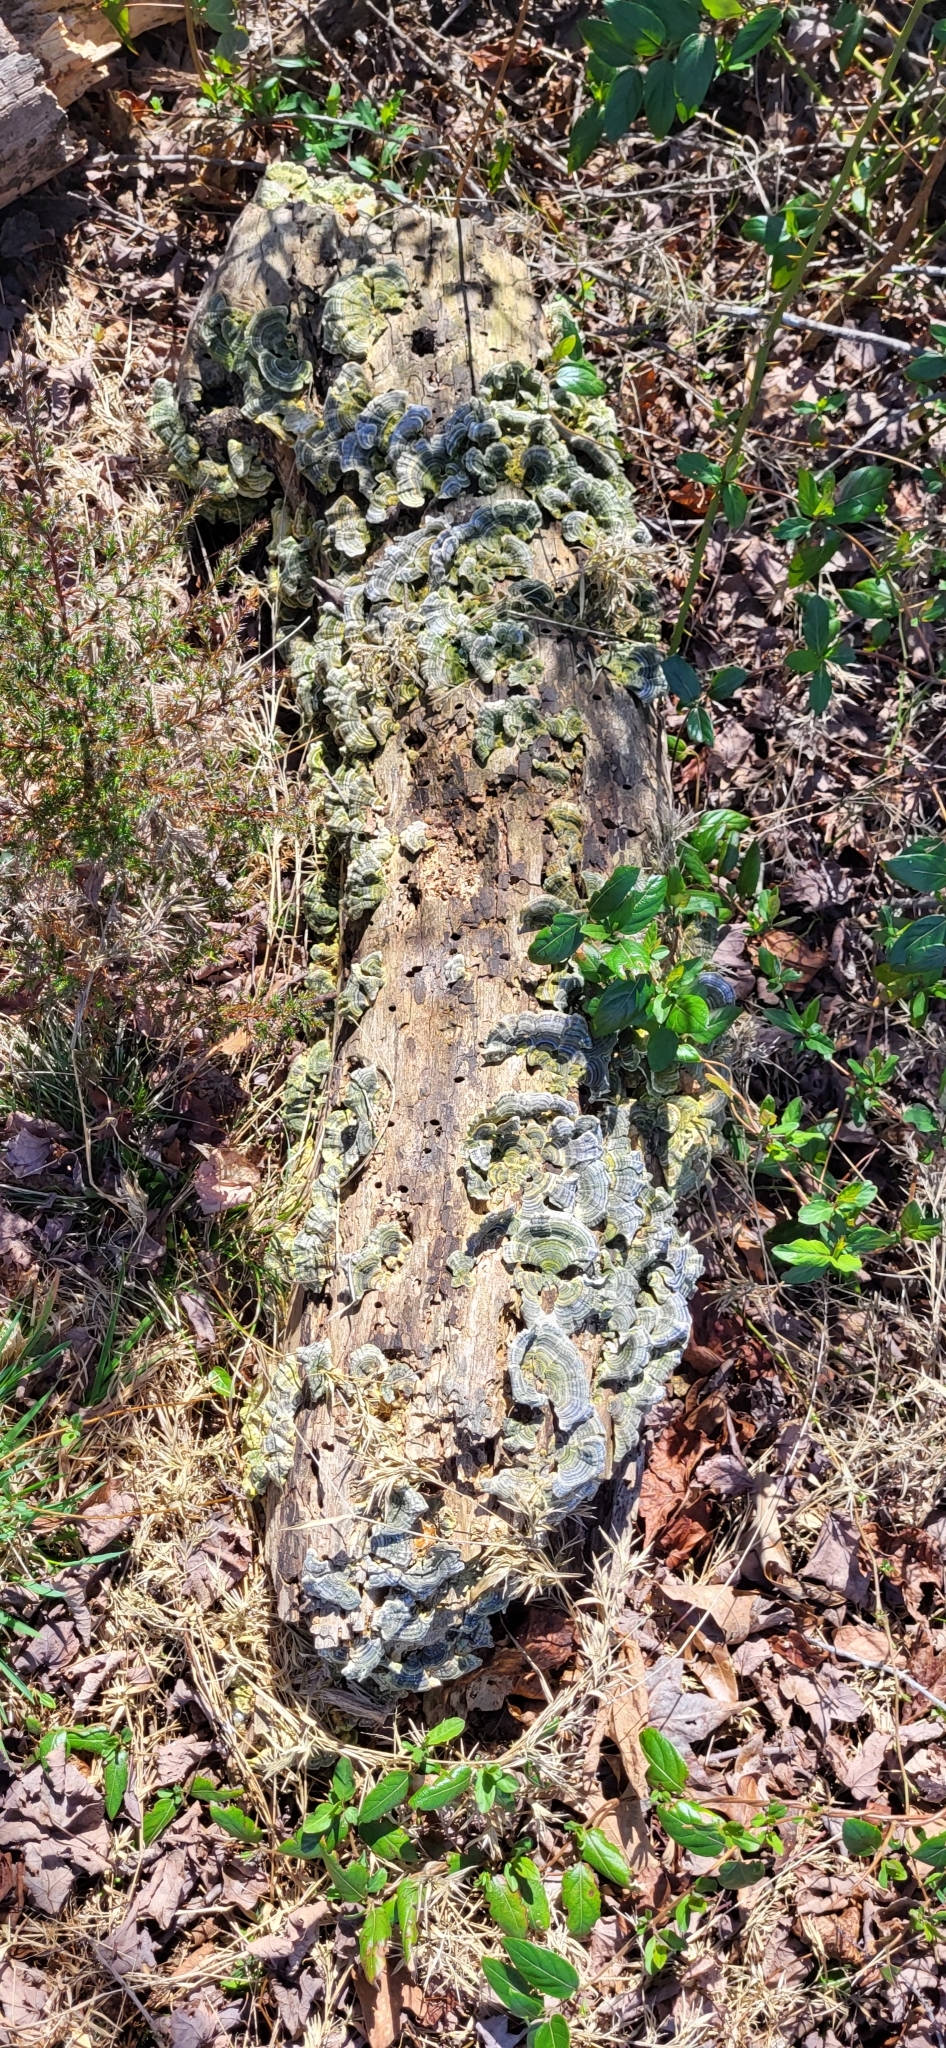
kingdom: Fungi
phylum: Basidiomycota
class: Agaricomycetes
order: Polyporales
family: Polyporaceae
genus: Trametes
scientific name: Trametes versicolor
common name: Turkeytail
